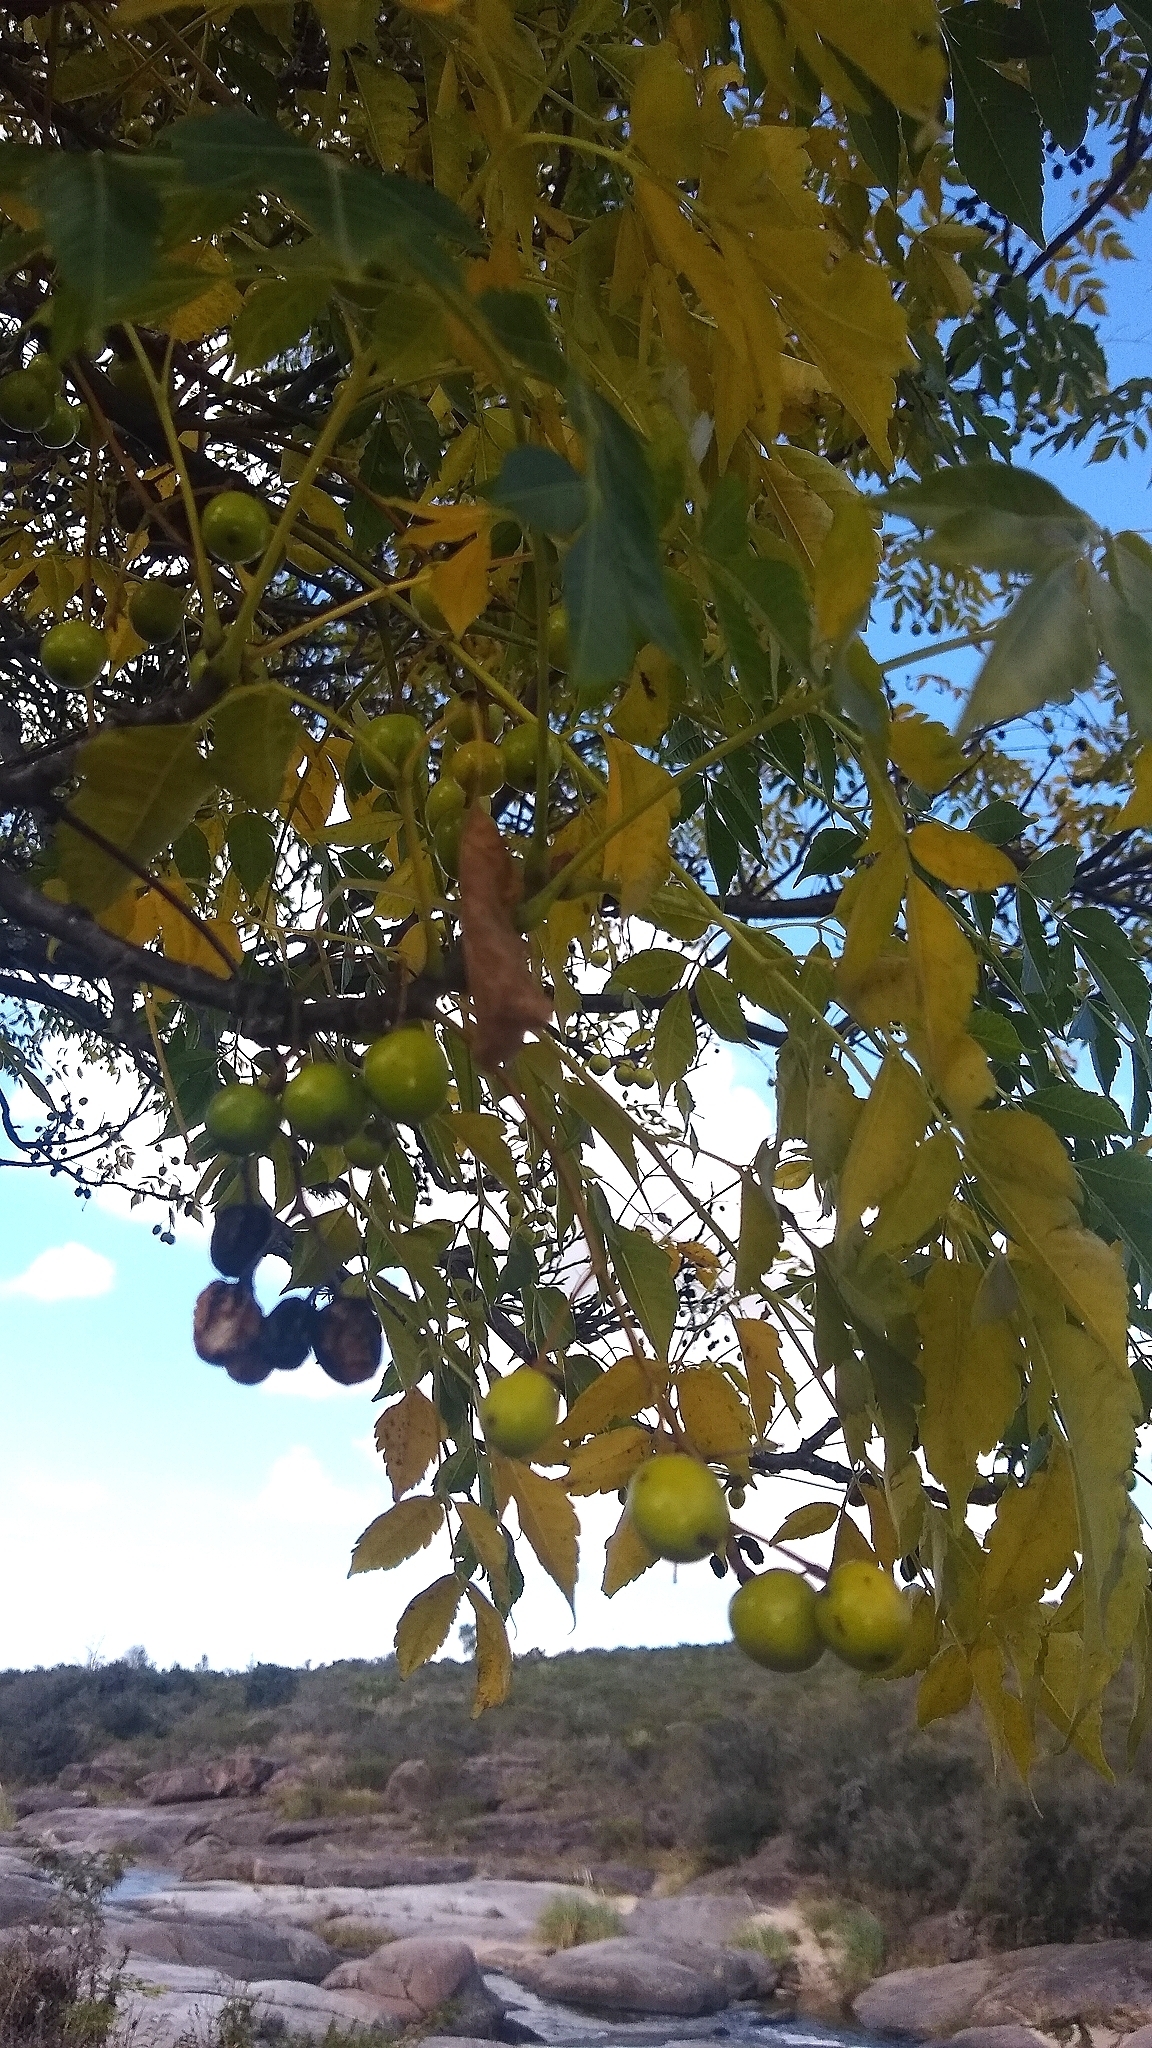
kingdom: Plantae
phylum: Tracheophyta
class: Magnoliopsida
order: Sapindales
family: Meliaceae
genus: Melia
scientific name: Melia azedarach
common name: Chinaberrytree
